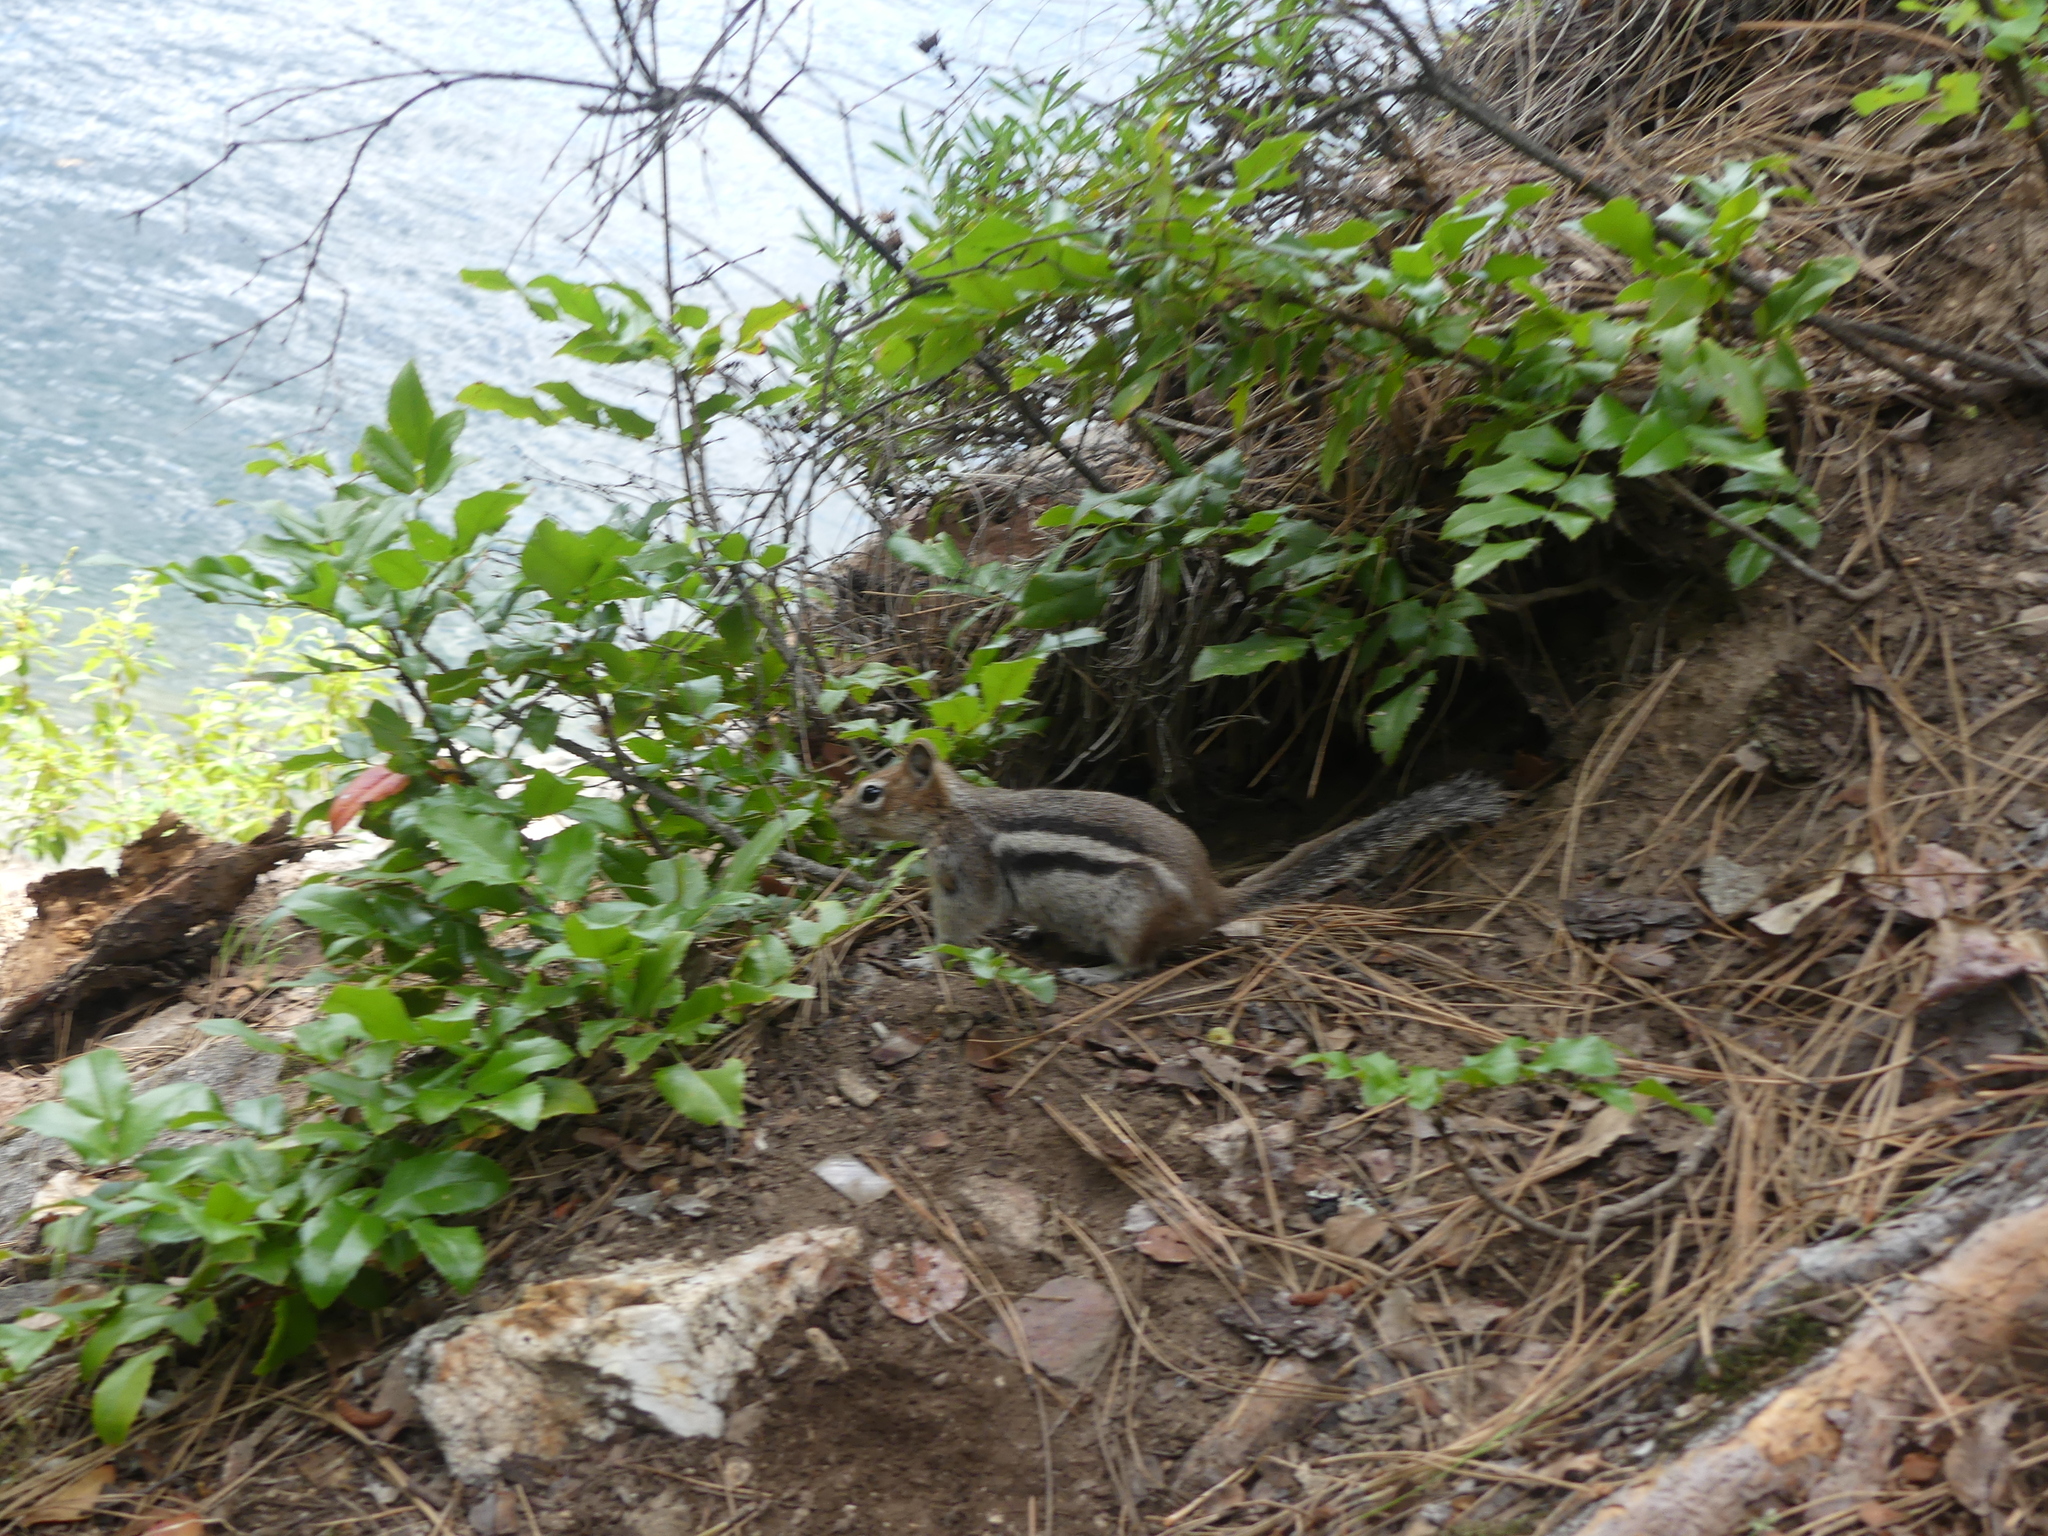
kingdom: Animalia
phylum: Chordata
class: Mammalia
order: Rodentia
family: Sciuridae
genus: Callospermophilus
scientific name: Callospermophilus lateralis
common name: Golden-mantled ground squirrel
